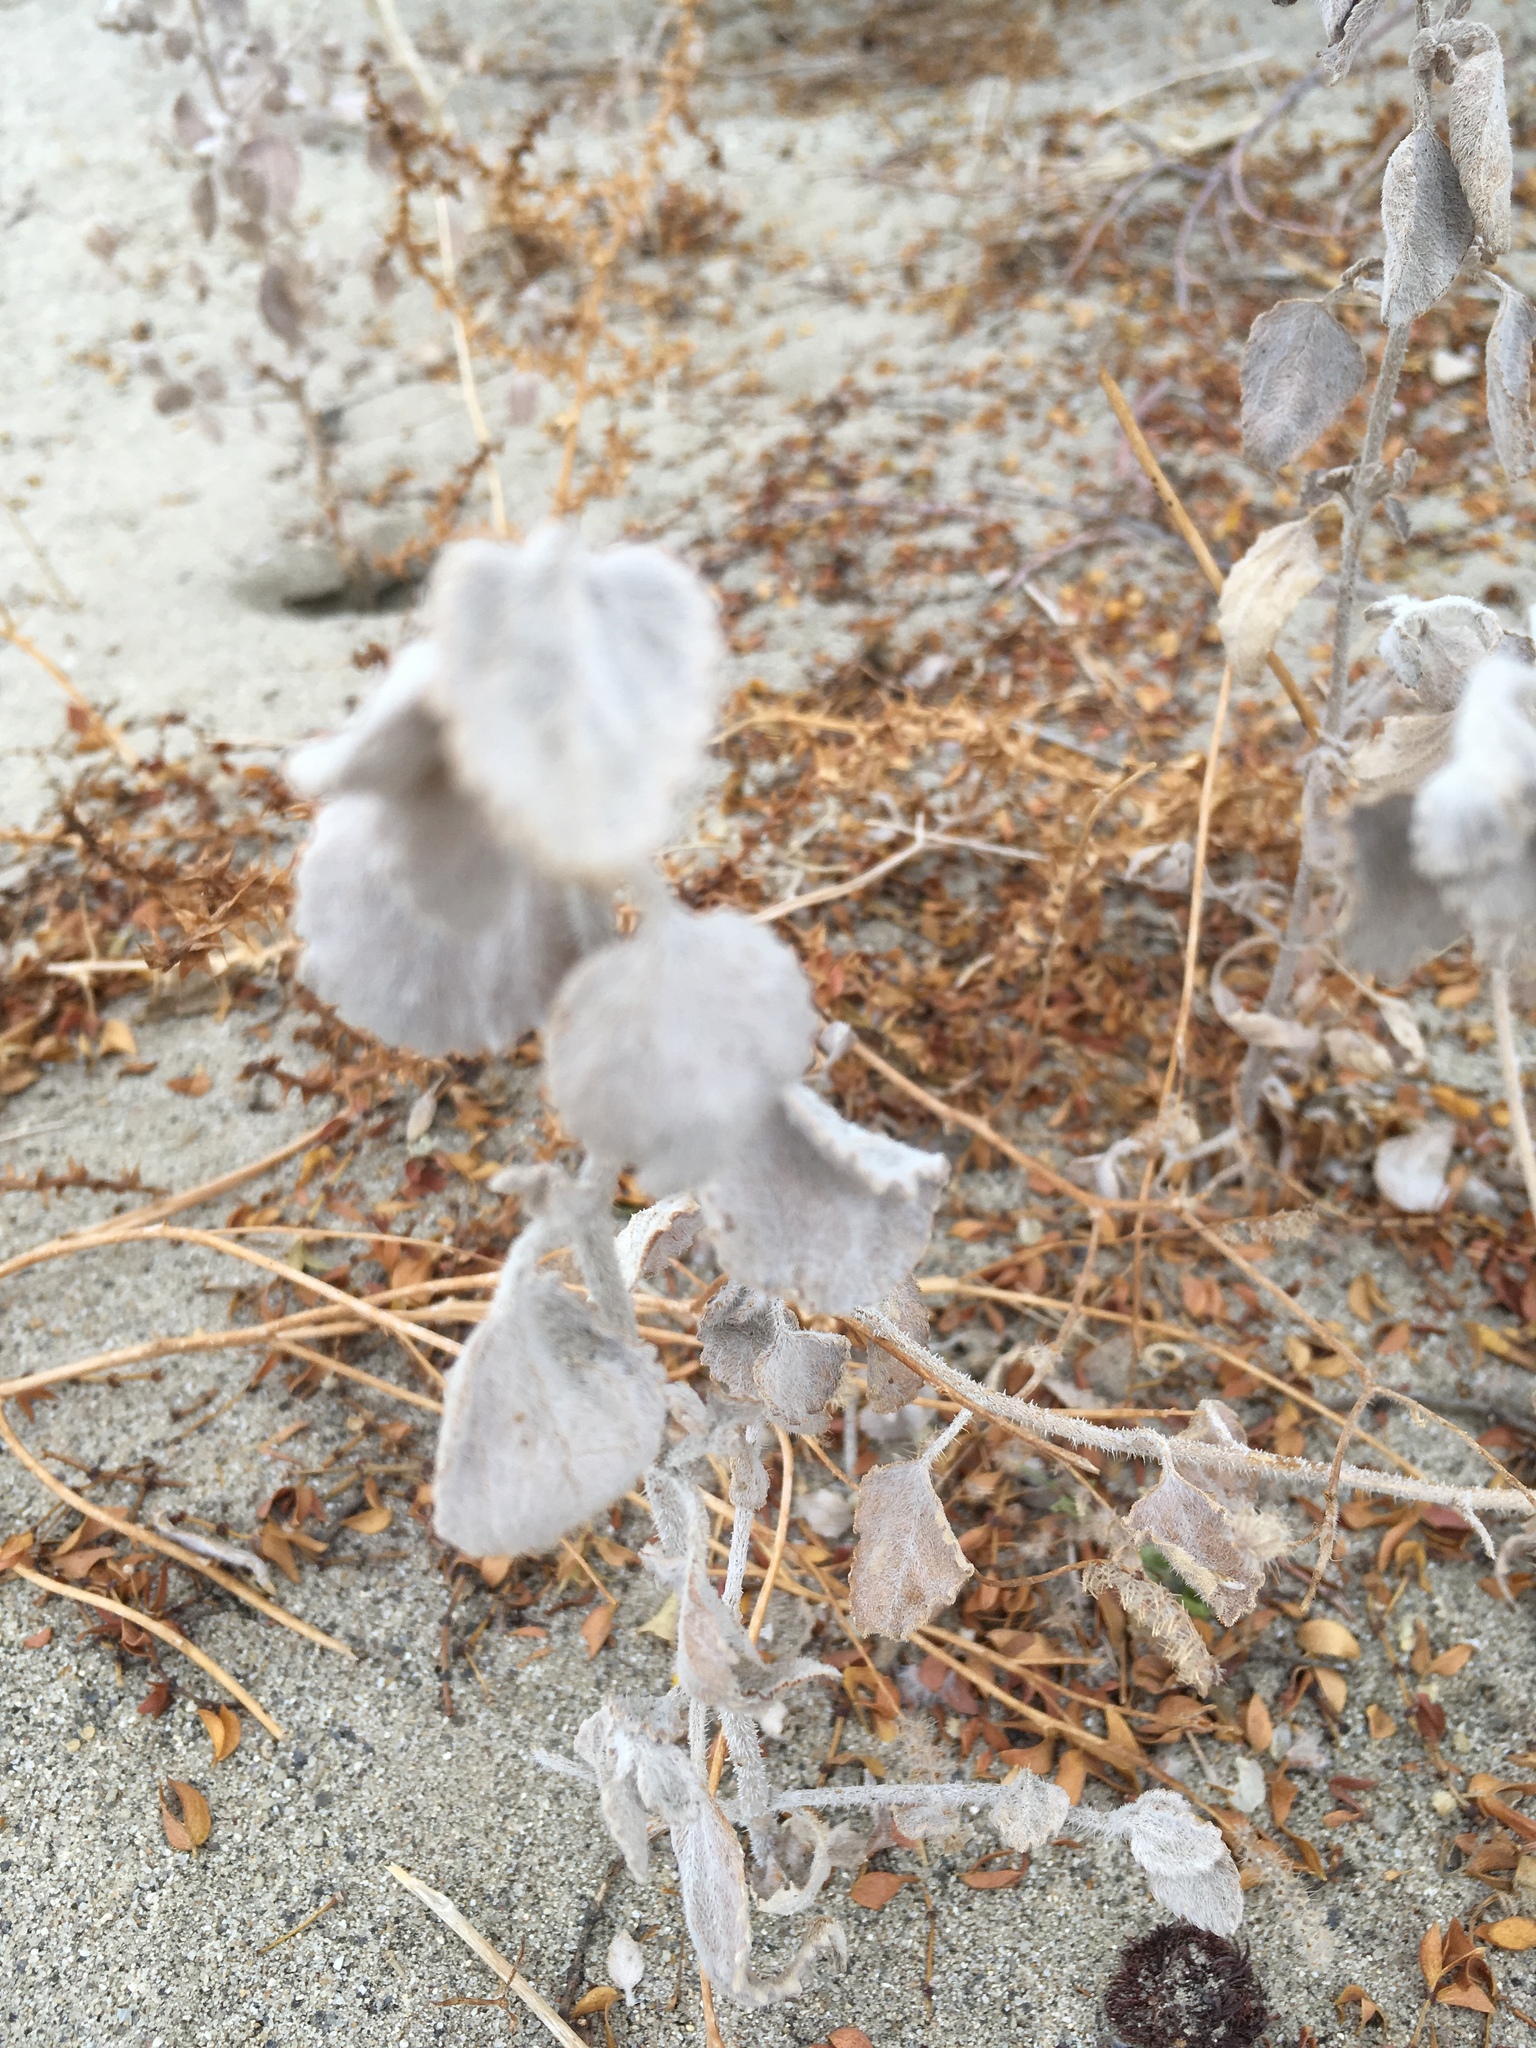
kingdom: Plantae
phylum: Tracheophyta
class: Magnoliopsida
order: Asterales
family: Asteraceae
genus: Dicoria
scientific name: Dicoria canescens
